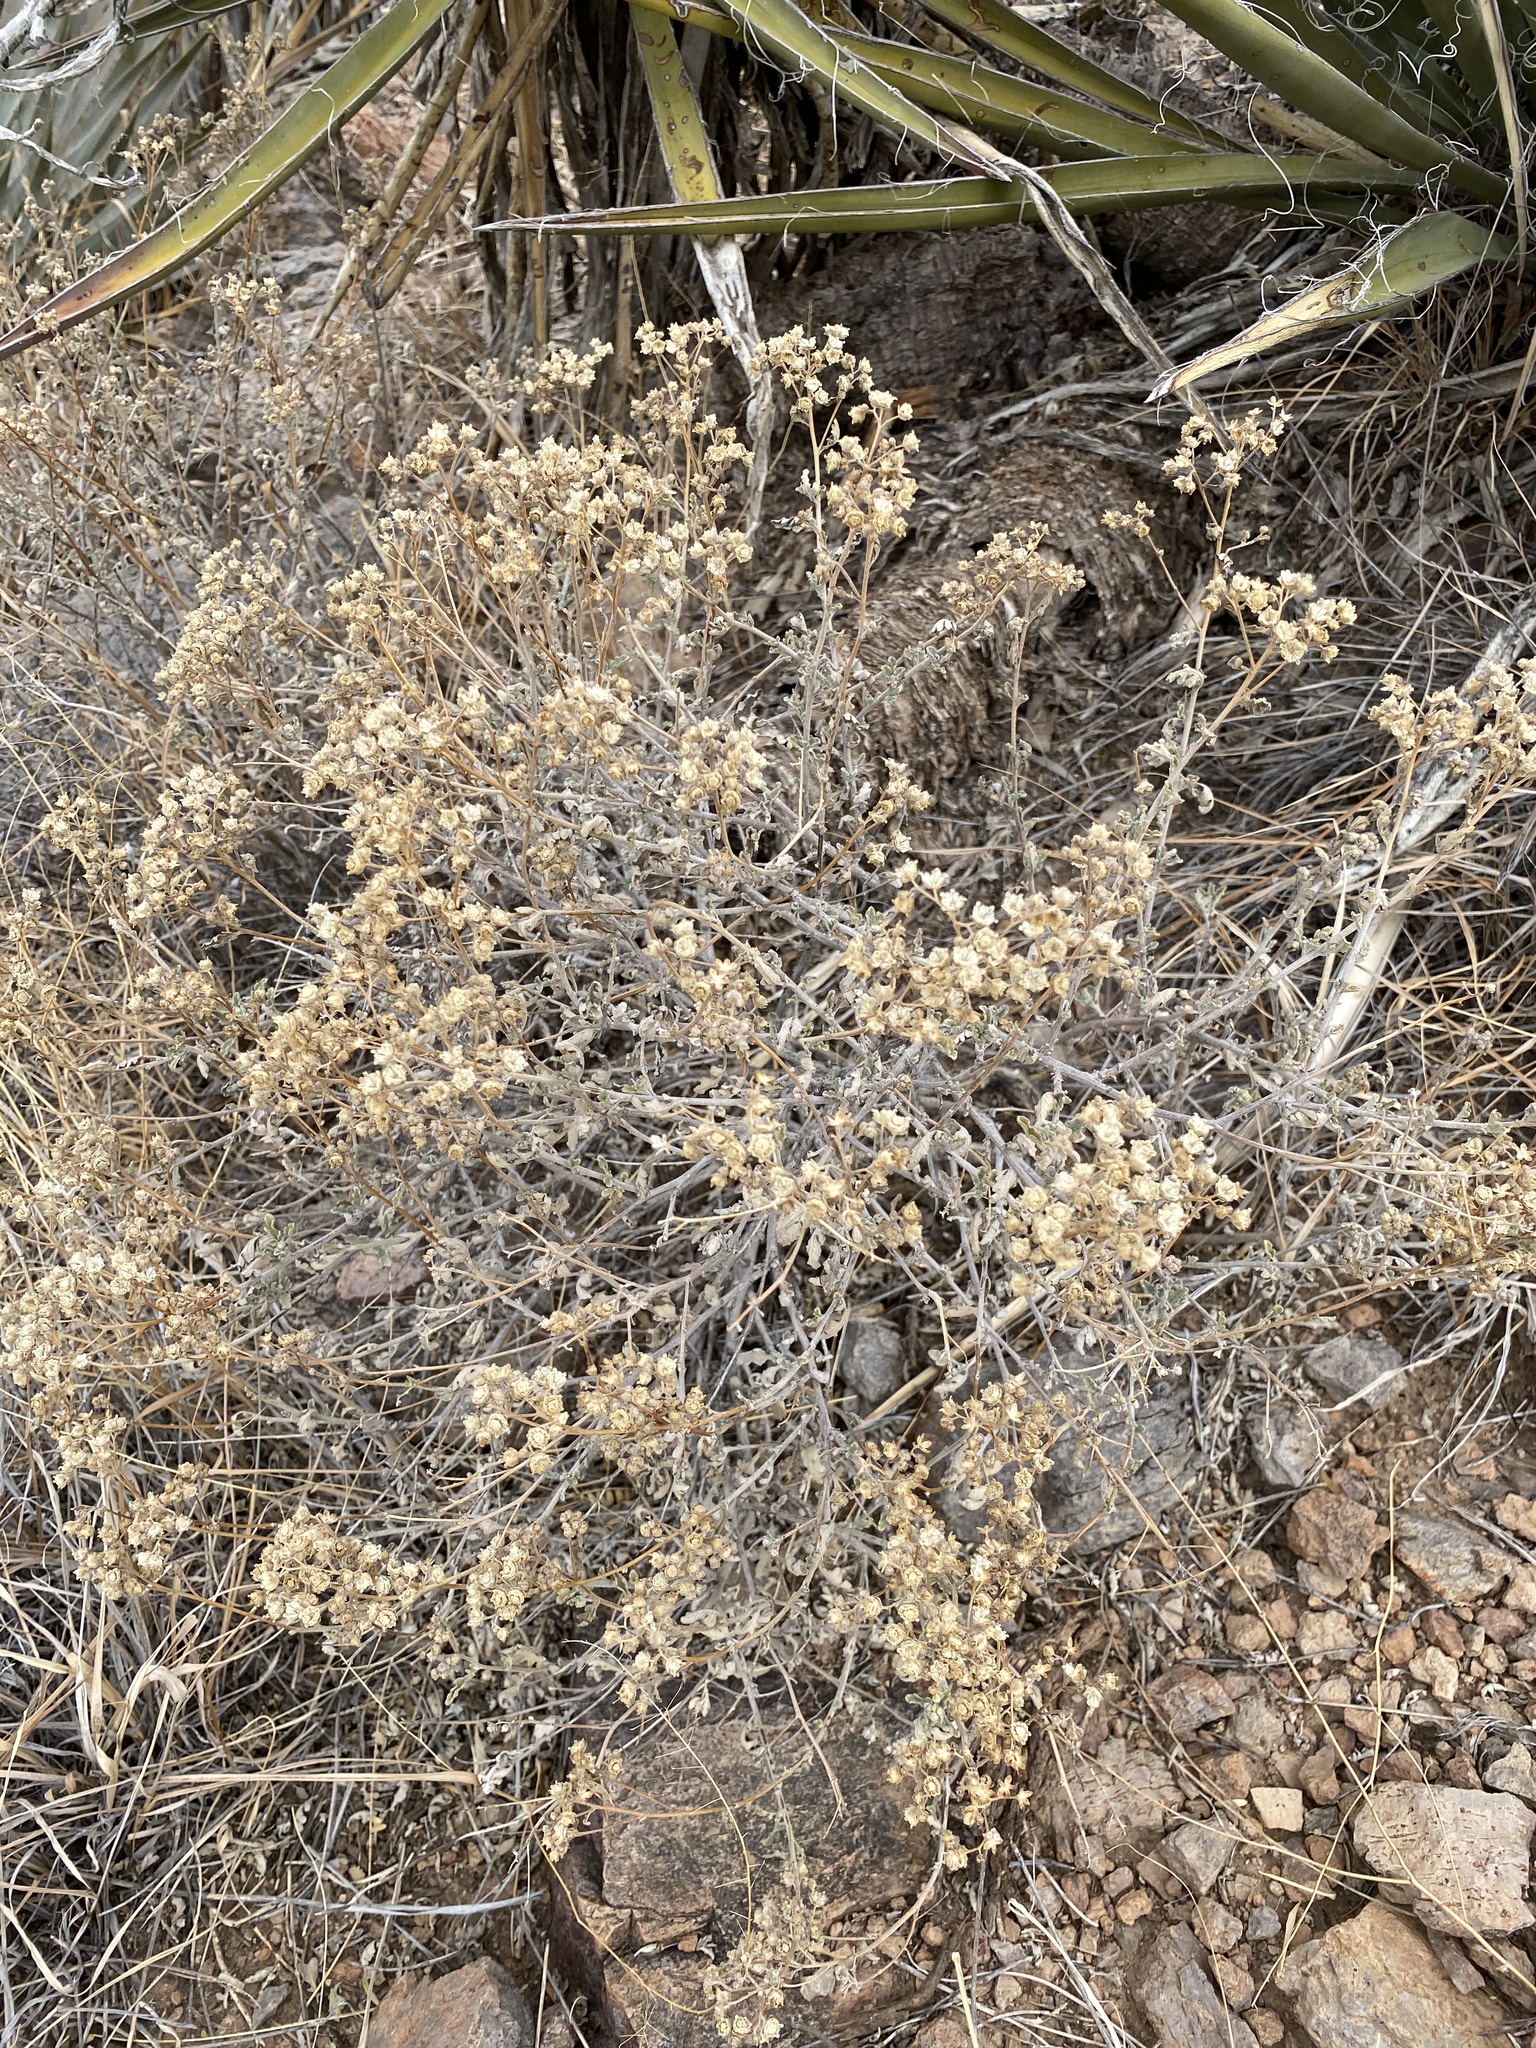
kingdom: Plantae
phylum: Tracheophyta
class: Magnoliopsida
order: Asterales
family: Asteraceae
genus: Parthenium
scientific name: Parthenium incanum
